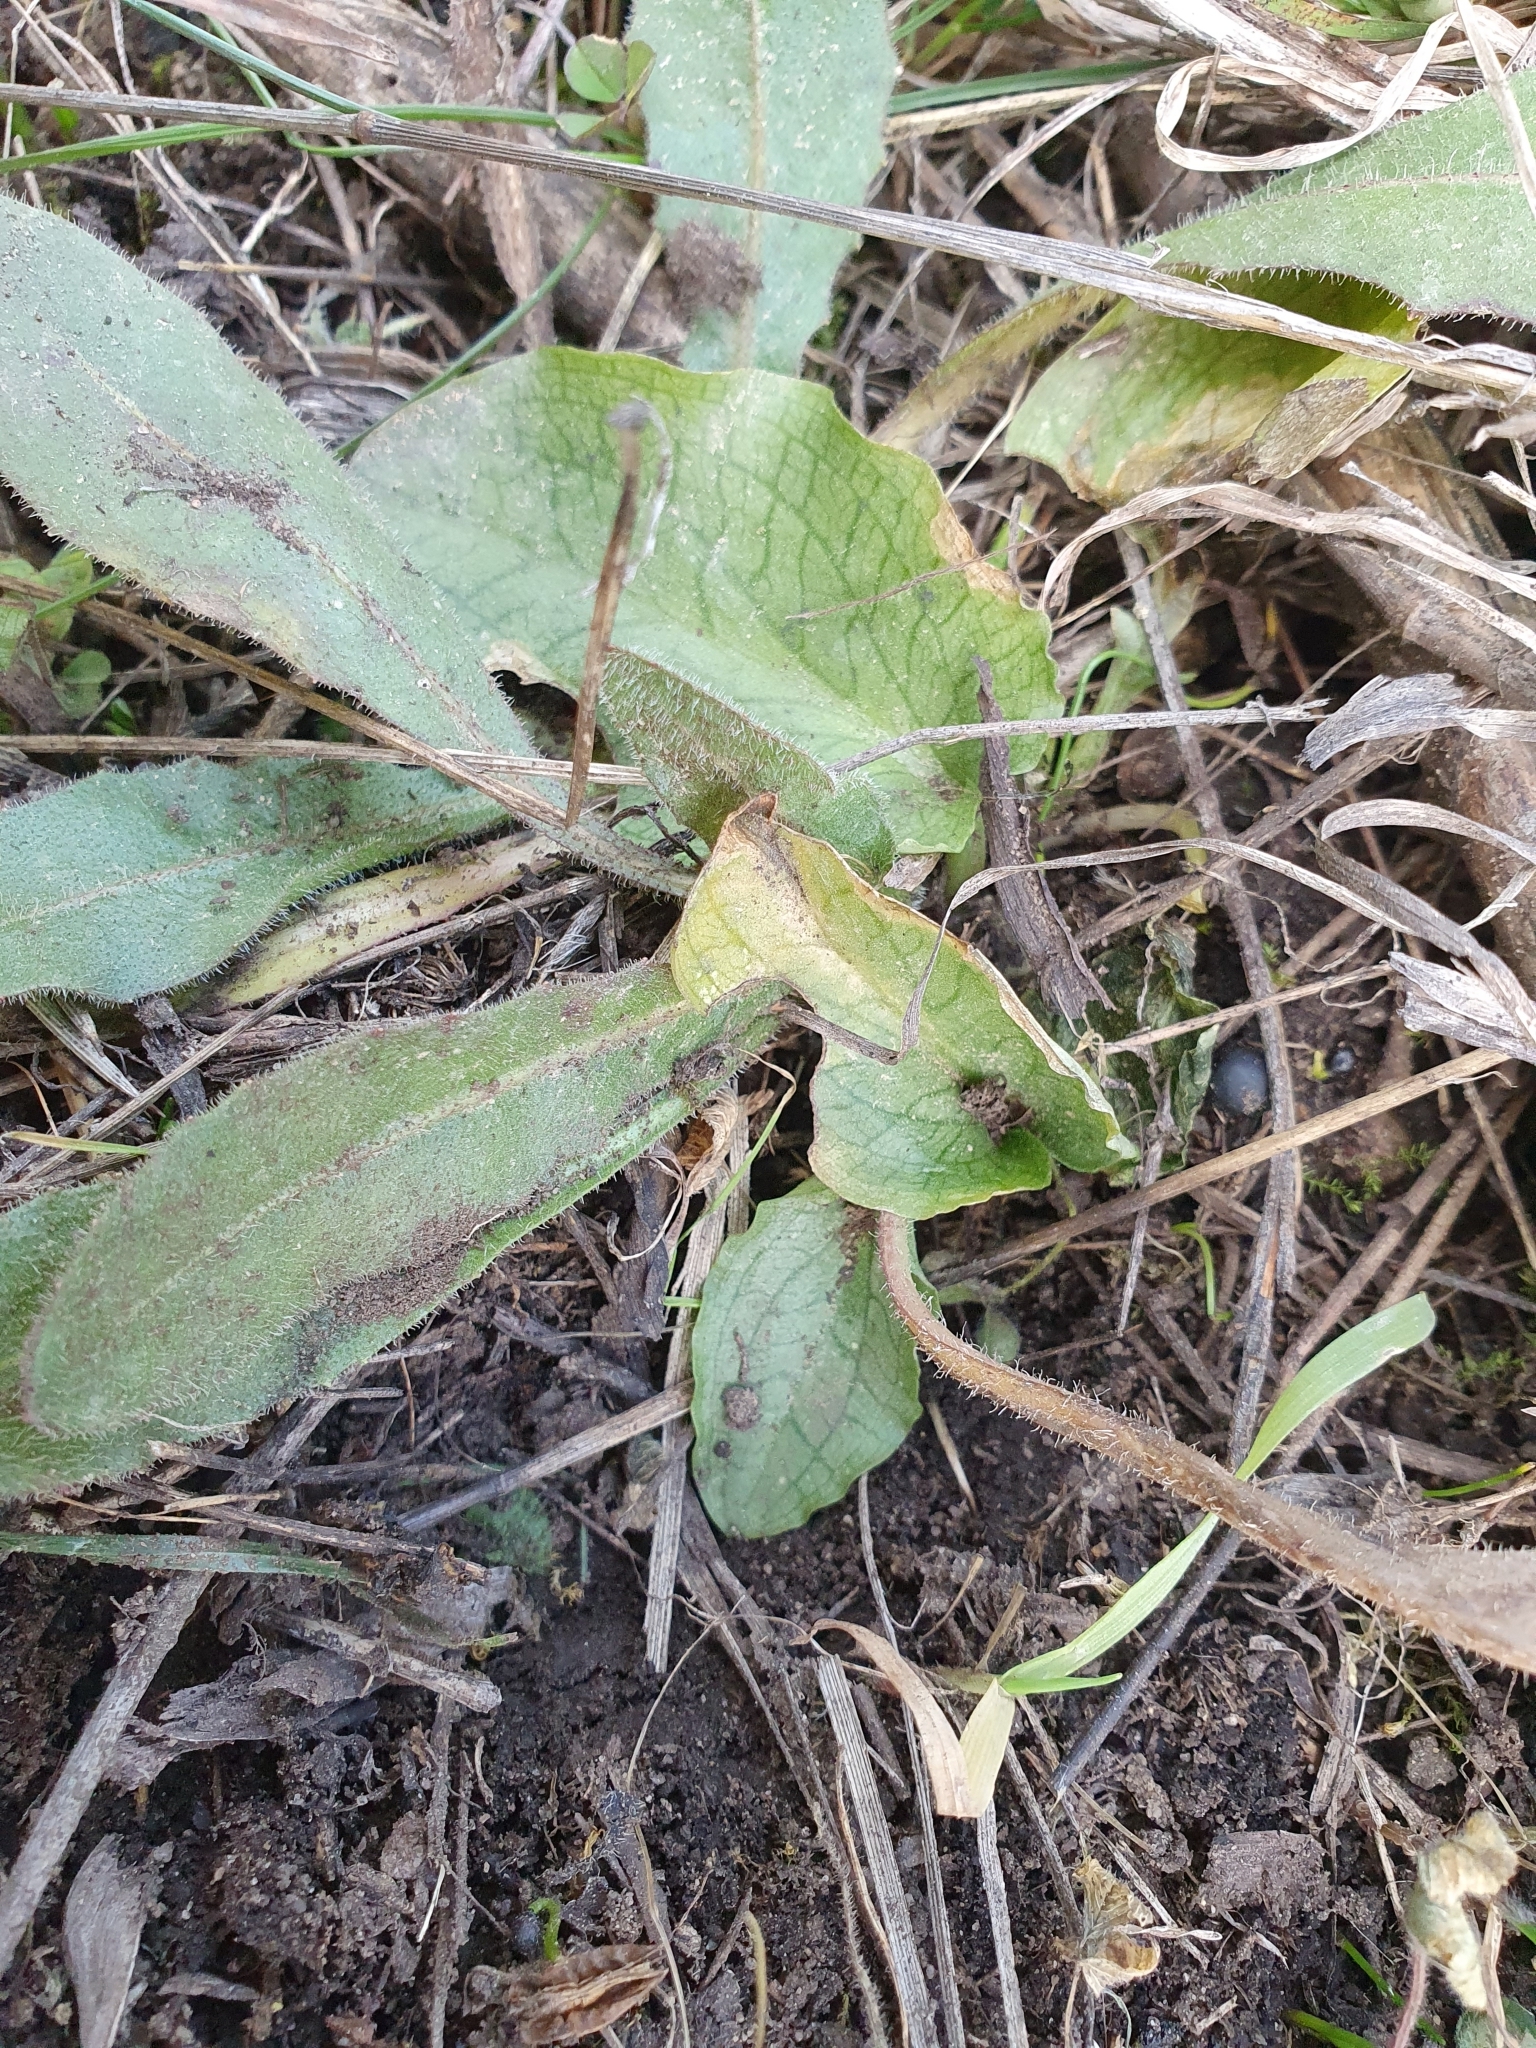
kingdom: Plantae
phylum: Tracheophyta
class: Liliopsida
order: Alismatales
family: Araceae
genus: Ambrosina
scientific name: Ambrosina bassii
